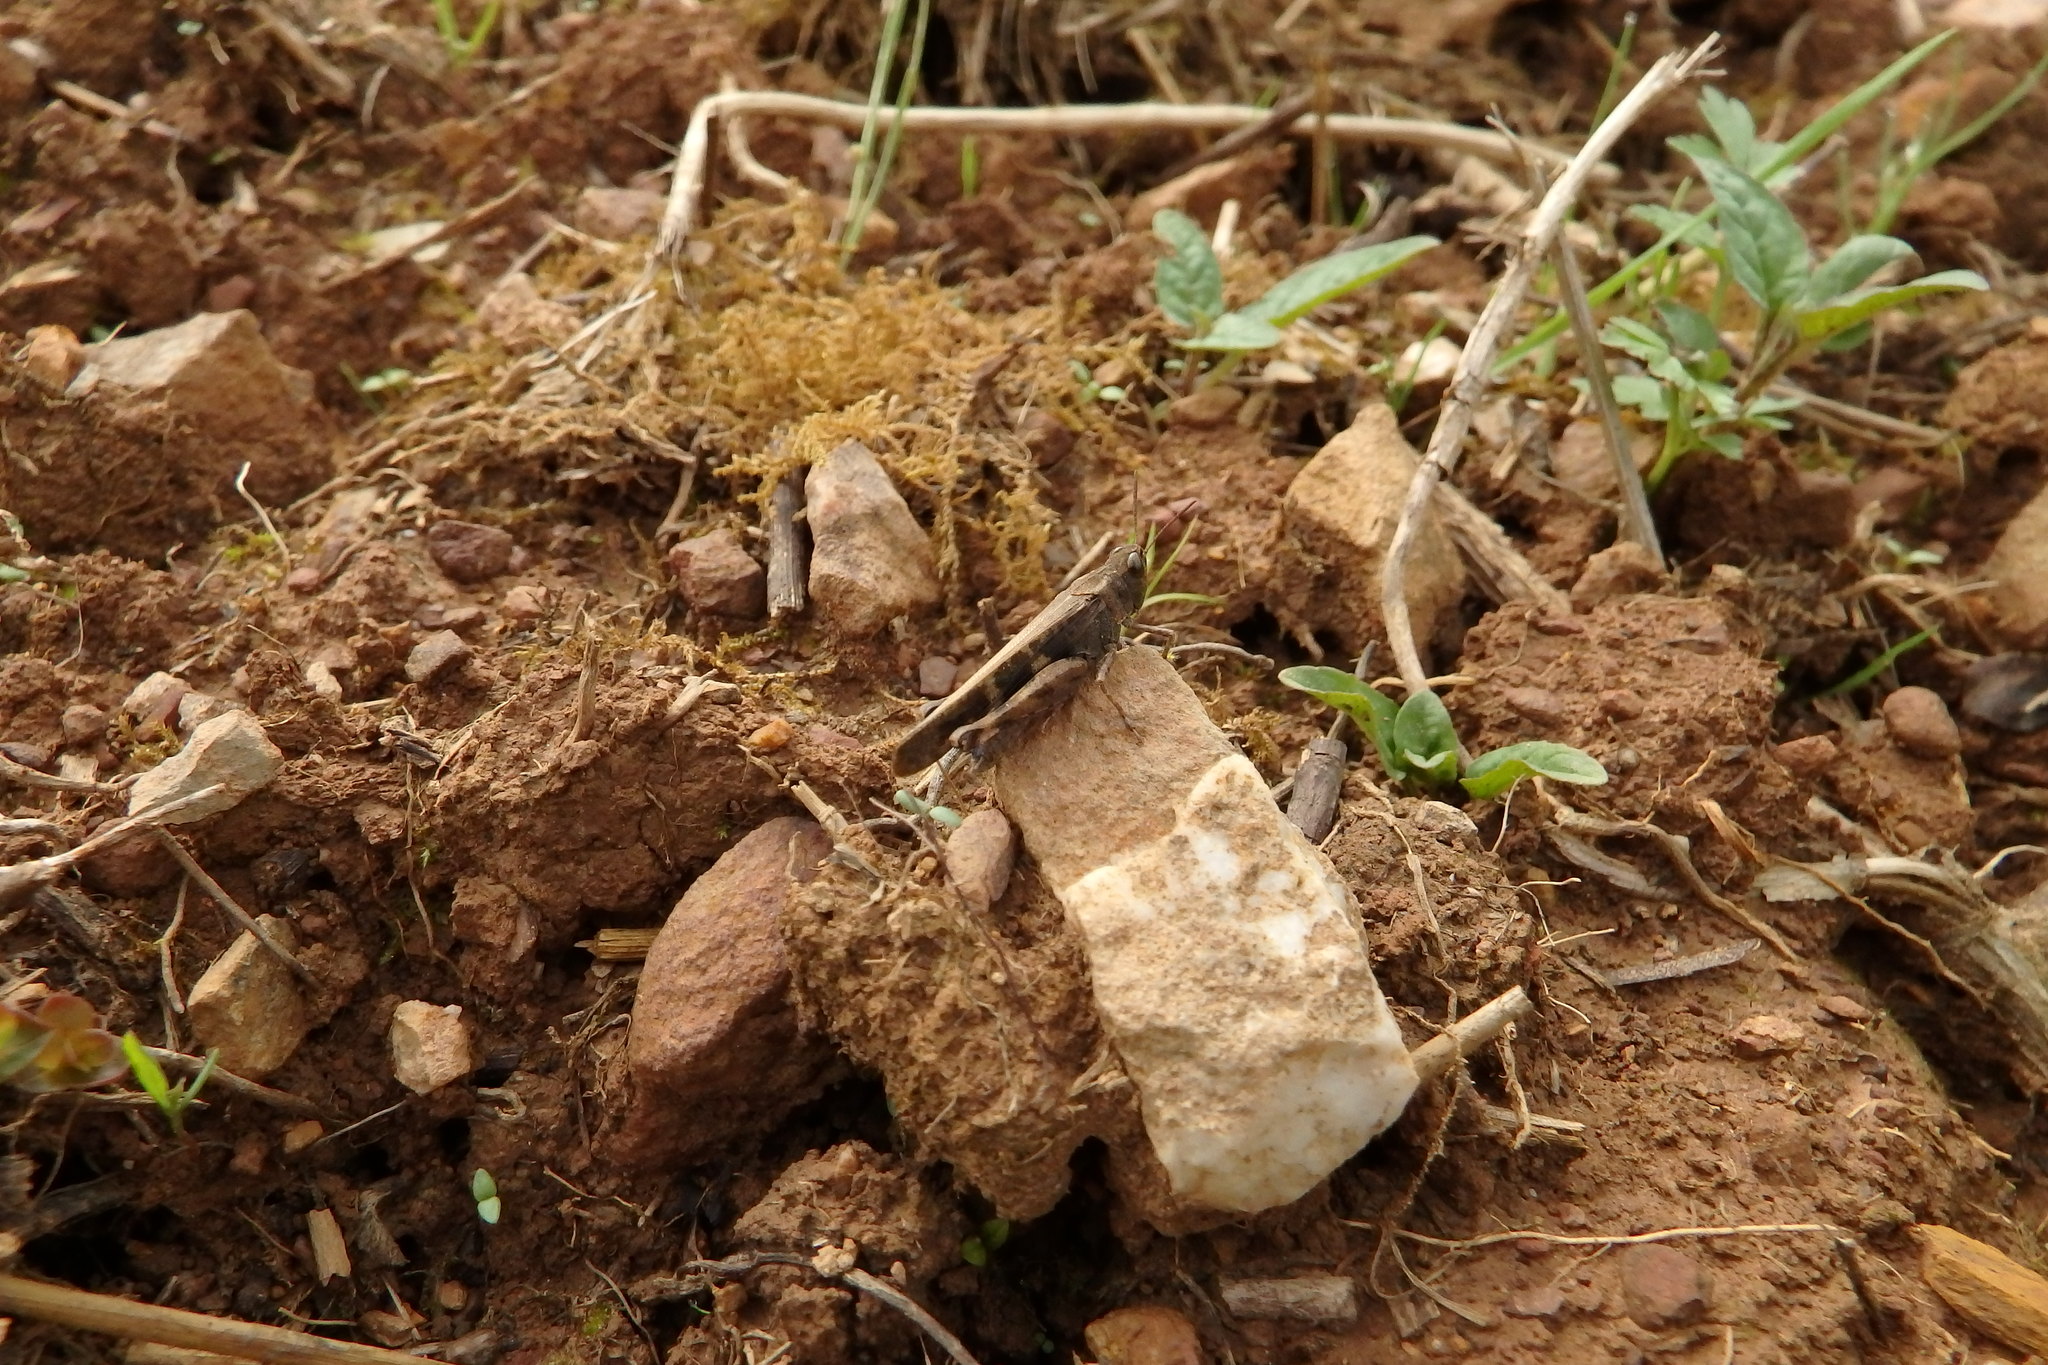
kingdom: Animalia
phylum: Arthropoda
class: Insecta
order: Orthoptera
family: Acrididae
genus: Aiolopus
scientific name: Aiolopus strepens
